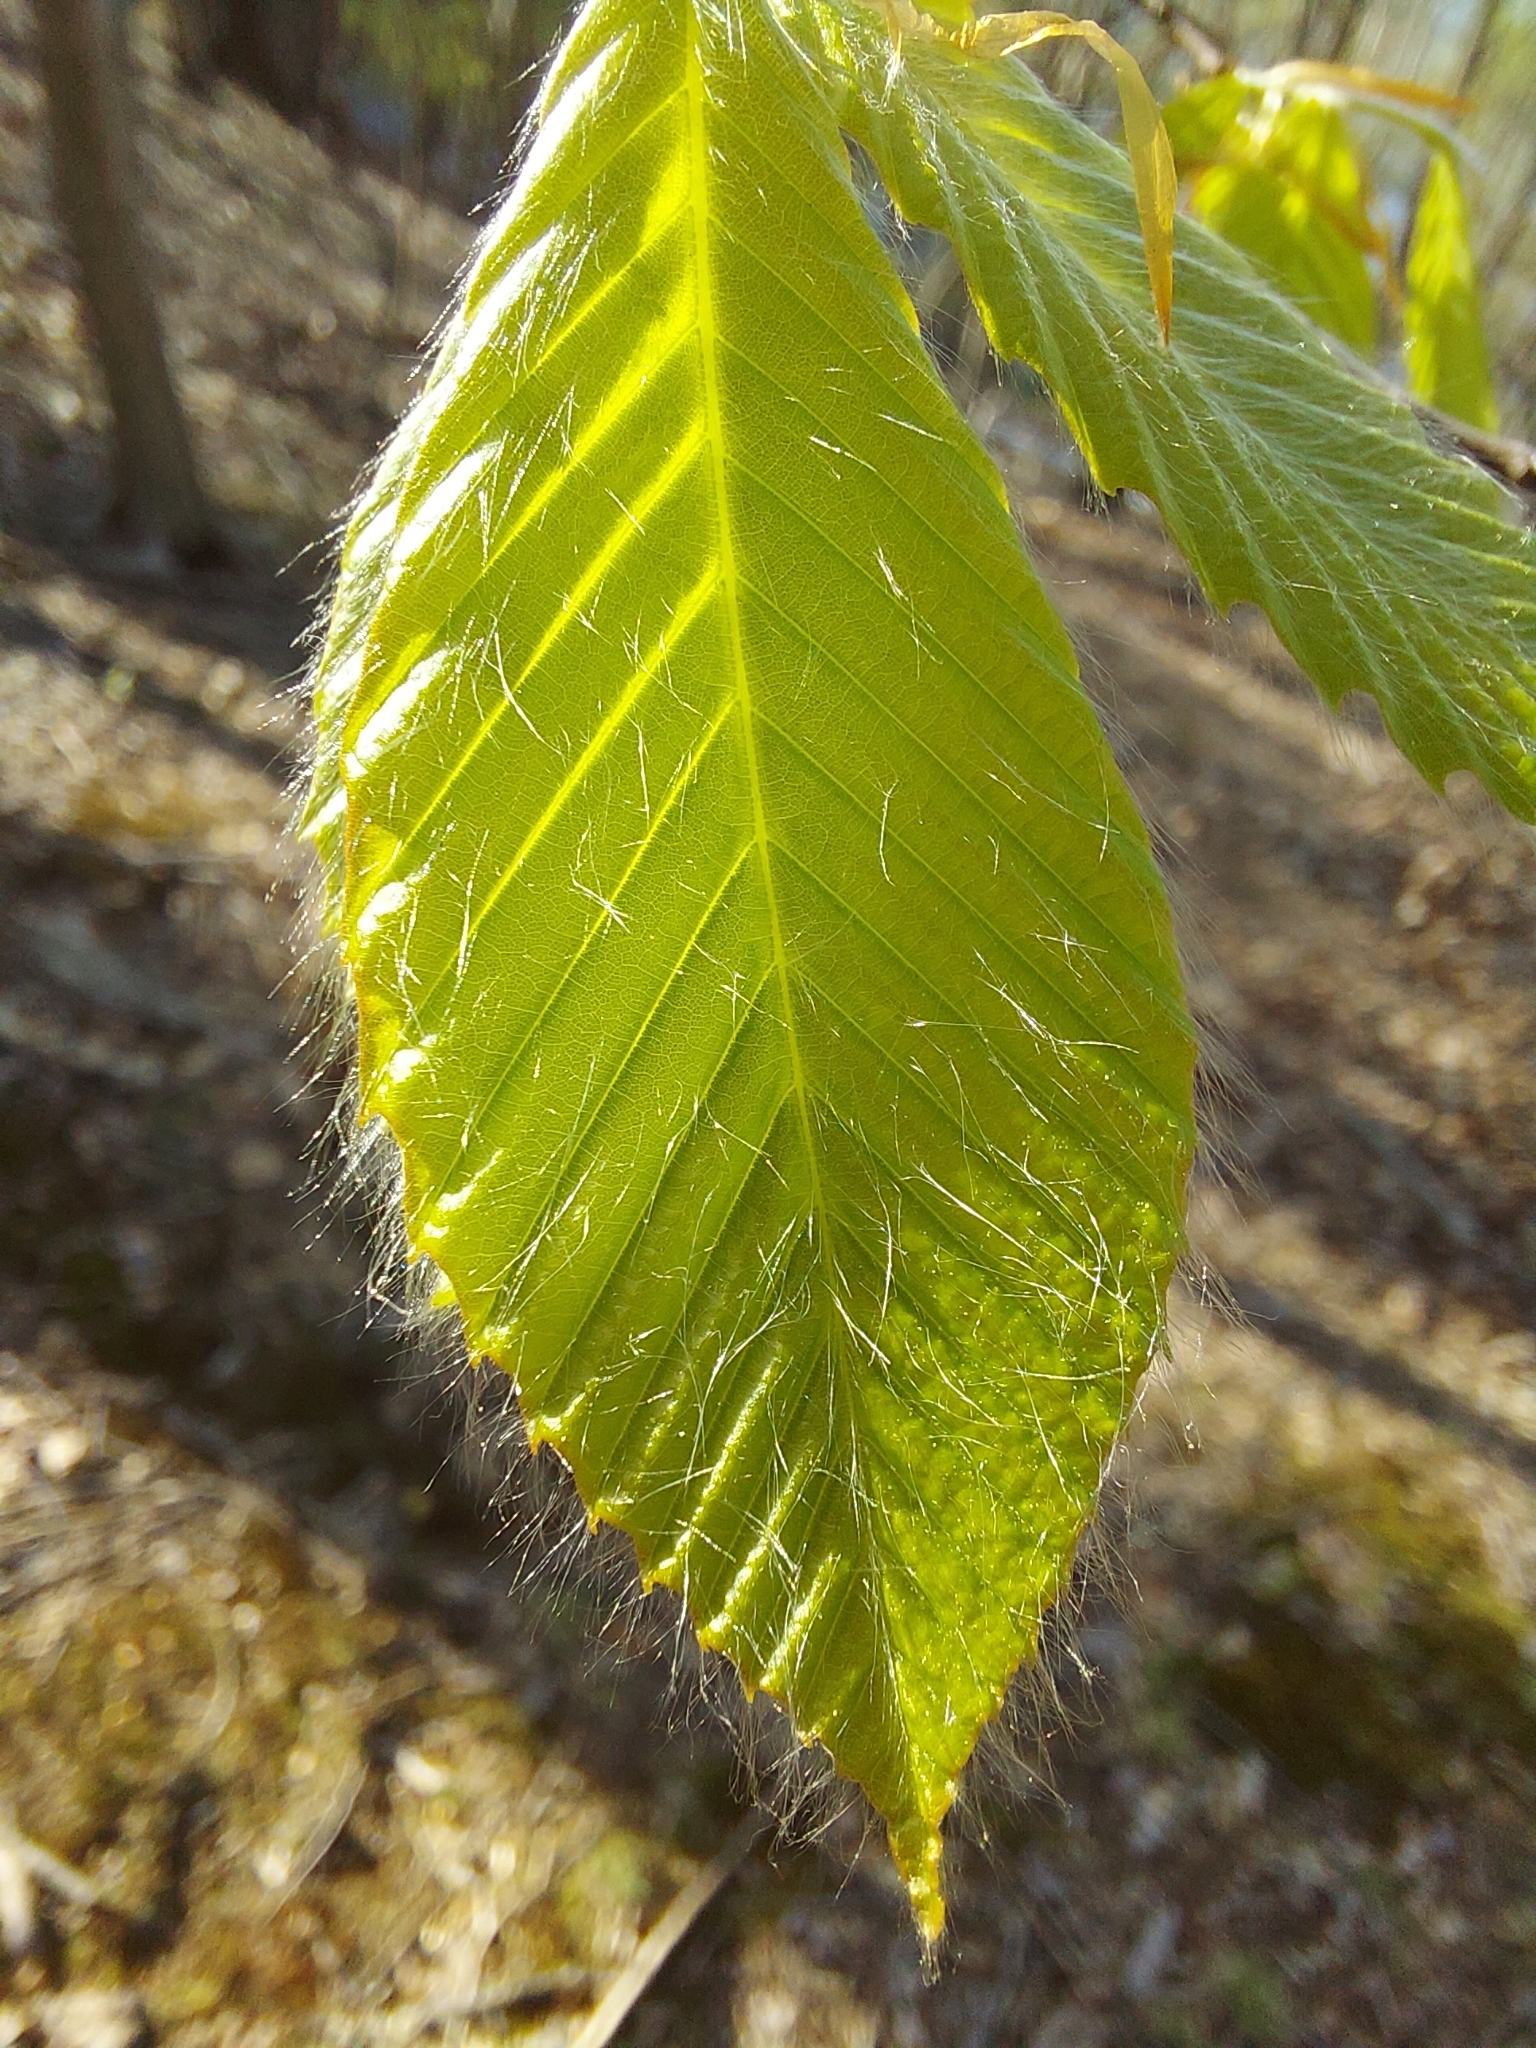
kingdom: Plantae
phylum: Tracheophyta
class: Magnoliopsida
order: Fagales
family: Fagaceae
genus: Fagus
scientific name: Fagus grandifolia
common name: American beech
